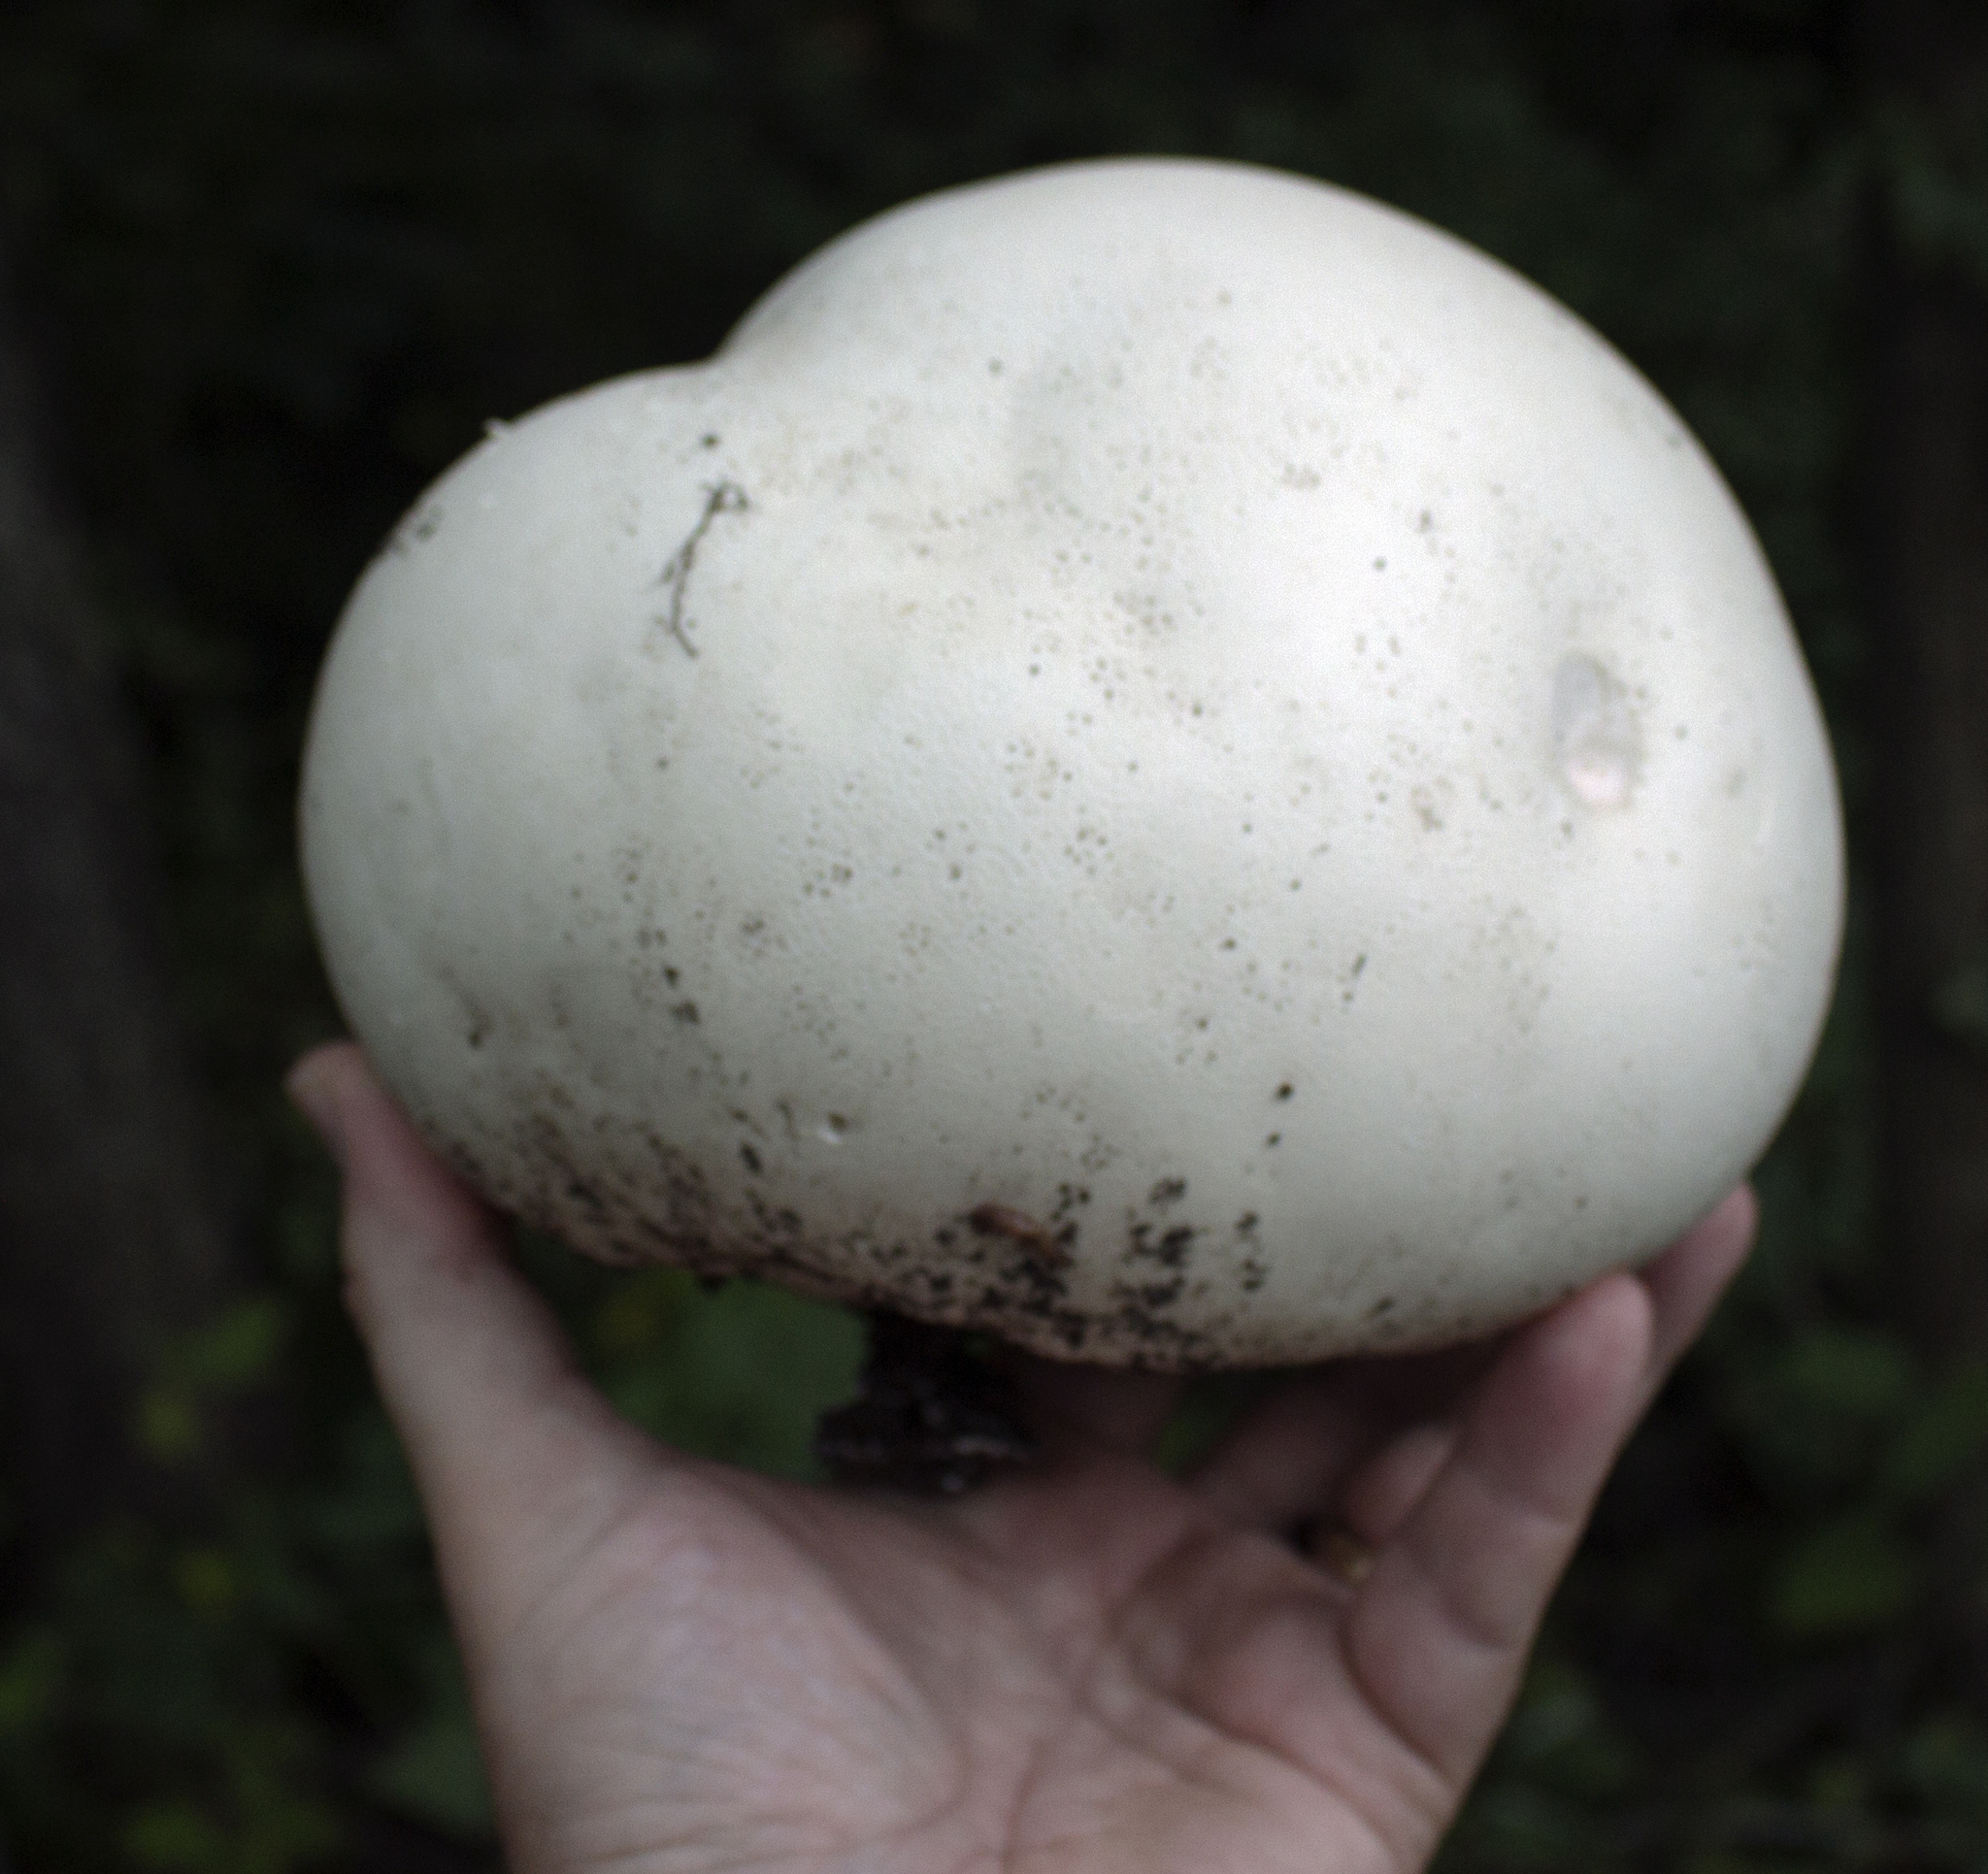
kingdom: Fungi
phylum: Basidiomycota
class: Agaricomycetes
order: Agaricales
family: Lycoperdaceae
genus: Calvatia
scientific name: Calvatia gigantea
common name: Giant puffball
